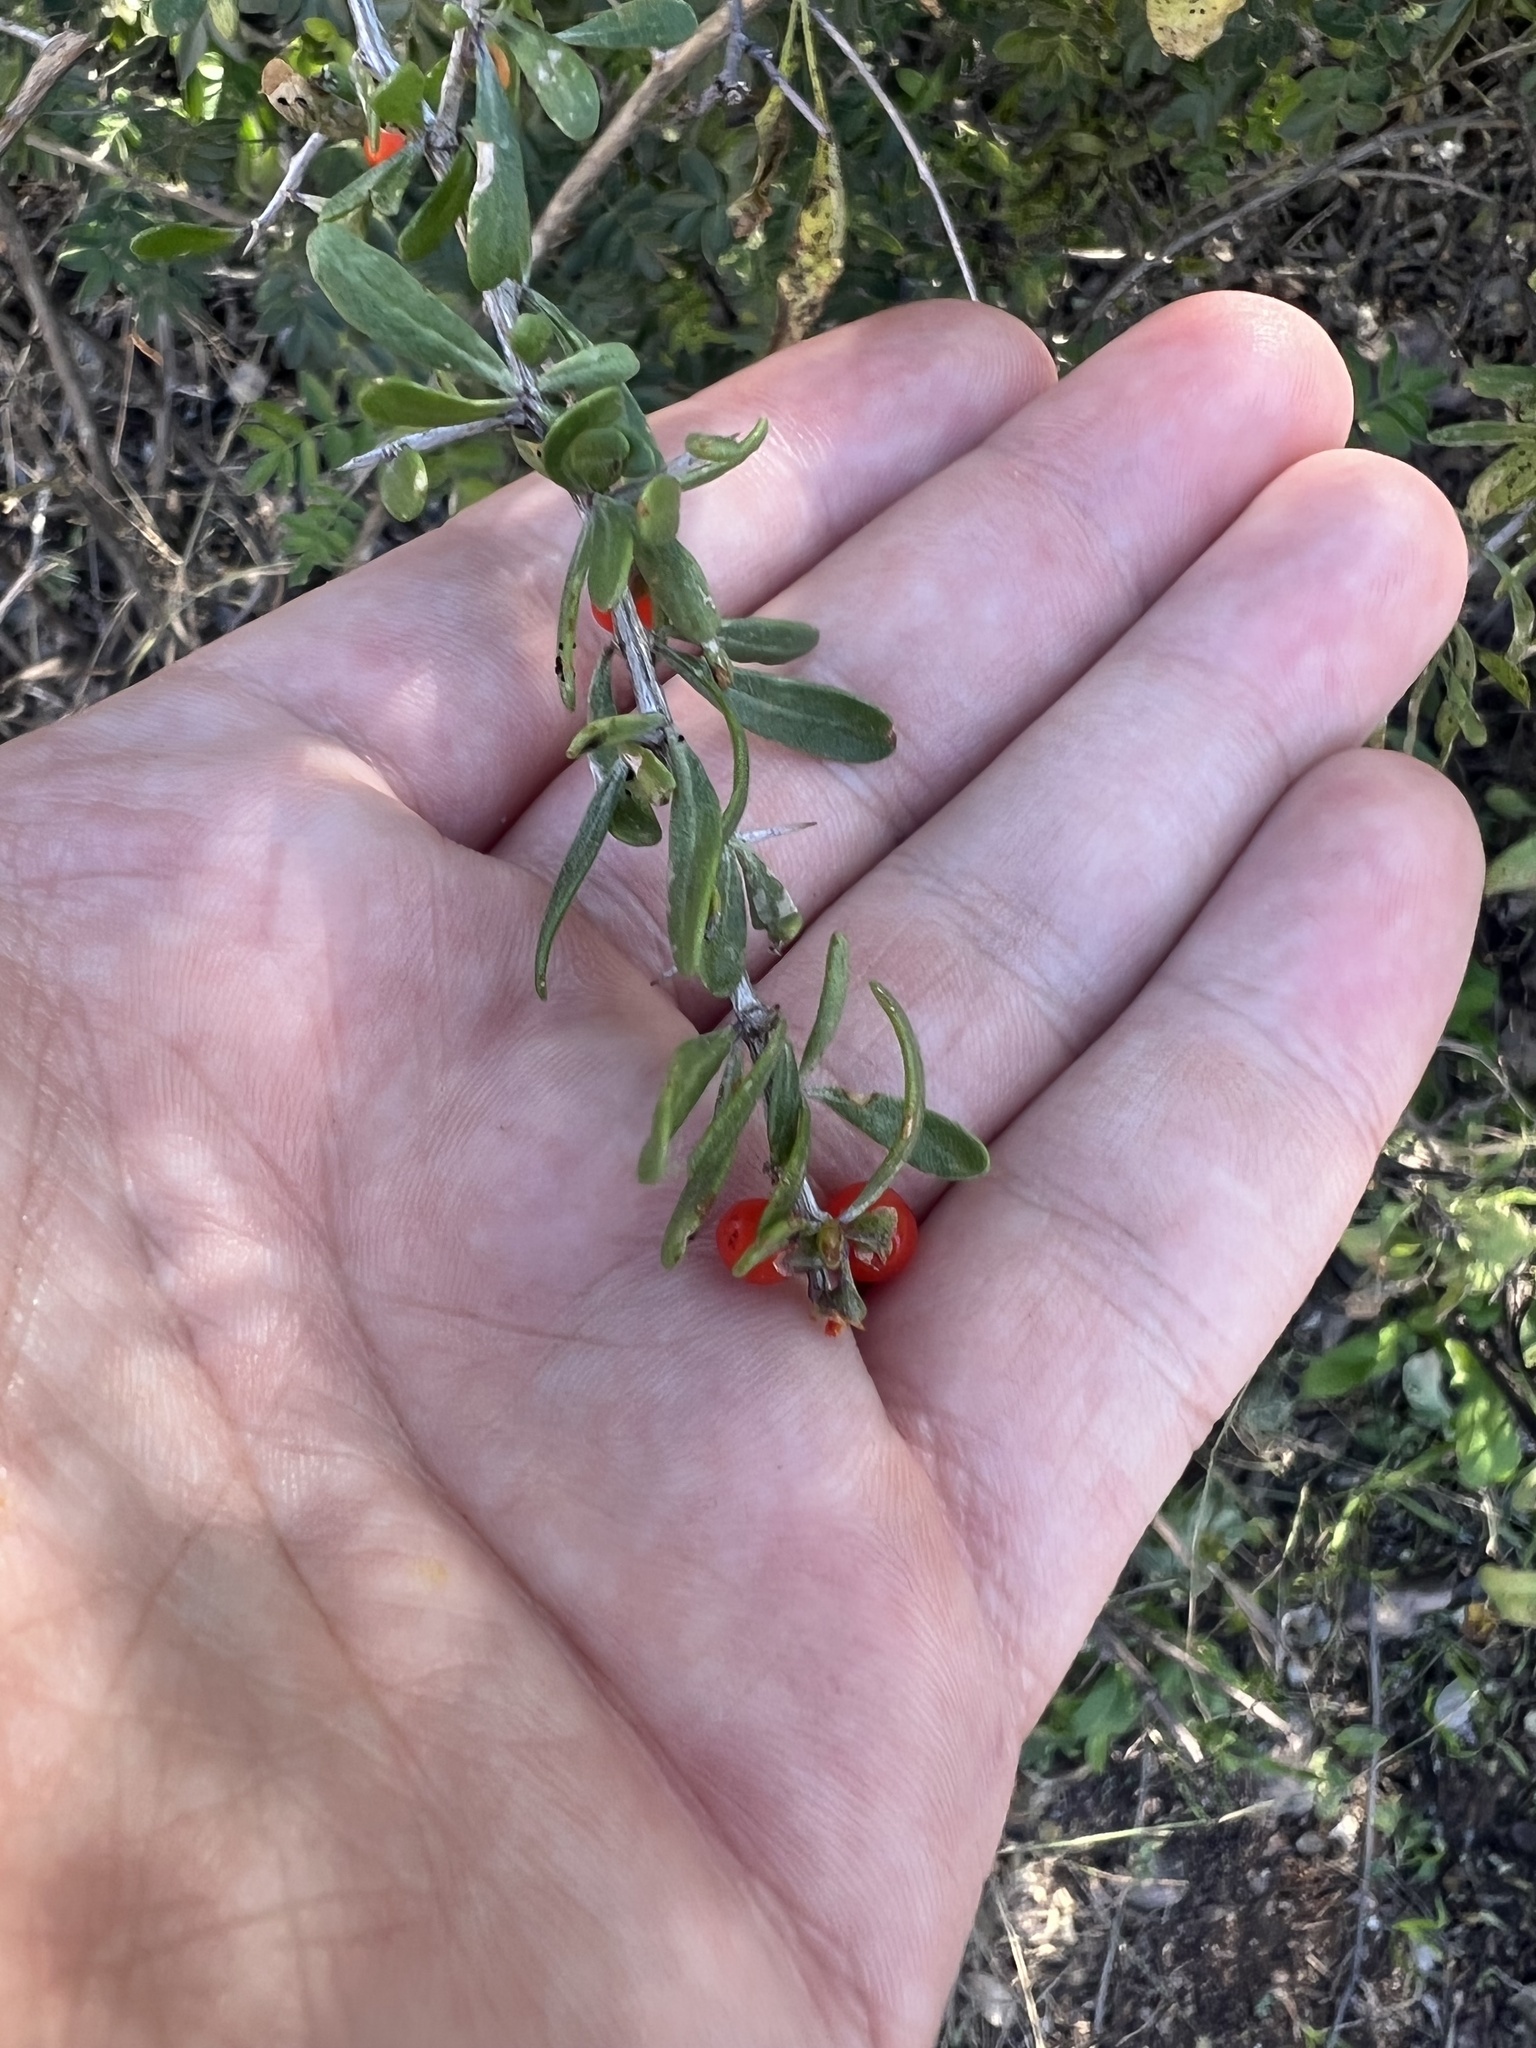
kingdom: Plantae
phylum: Tracheophyta
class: Magnoliopsida
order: Solanales
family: Solanaceae
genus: Lycium
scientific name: Lycium berlandieri
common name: Berlandier wolfberry
